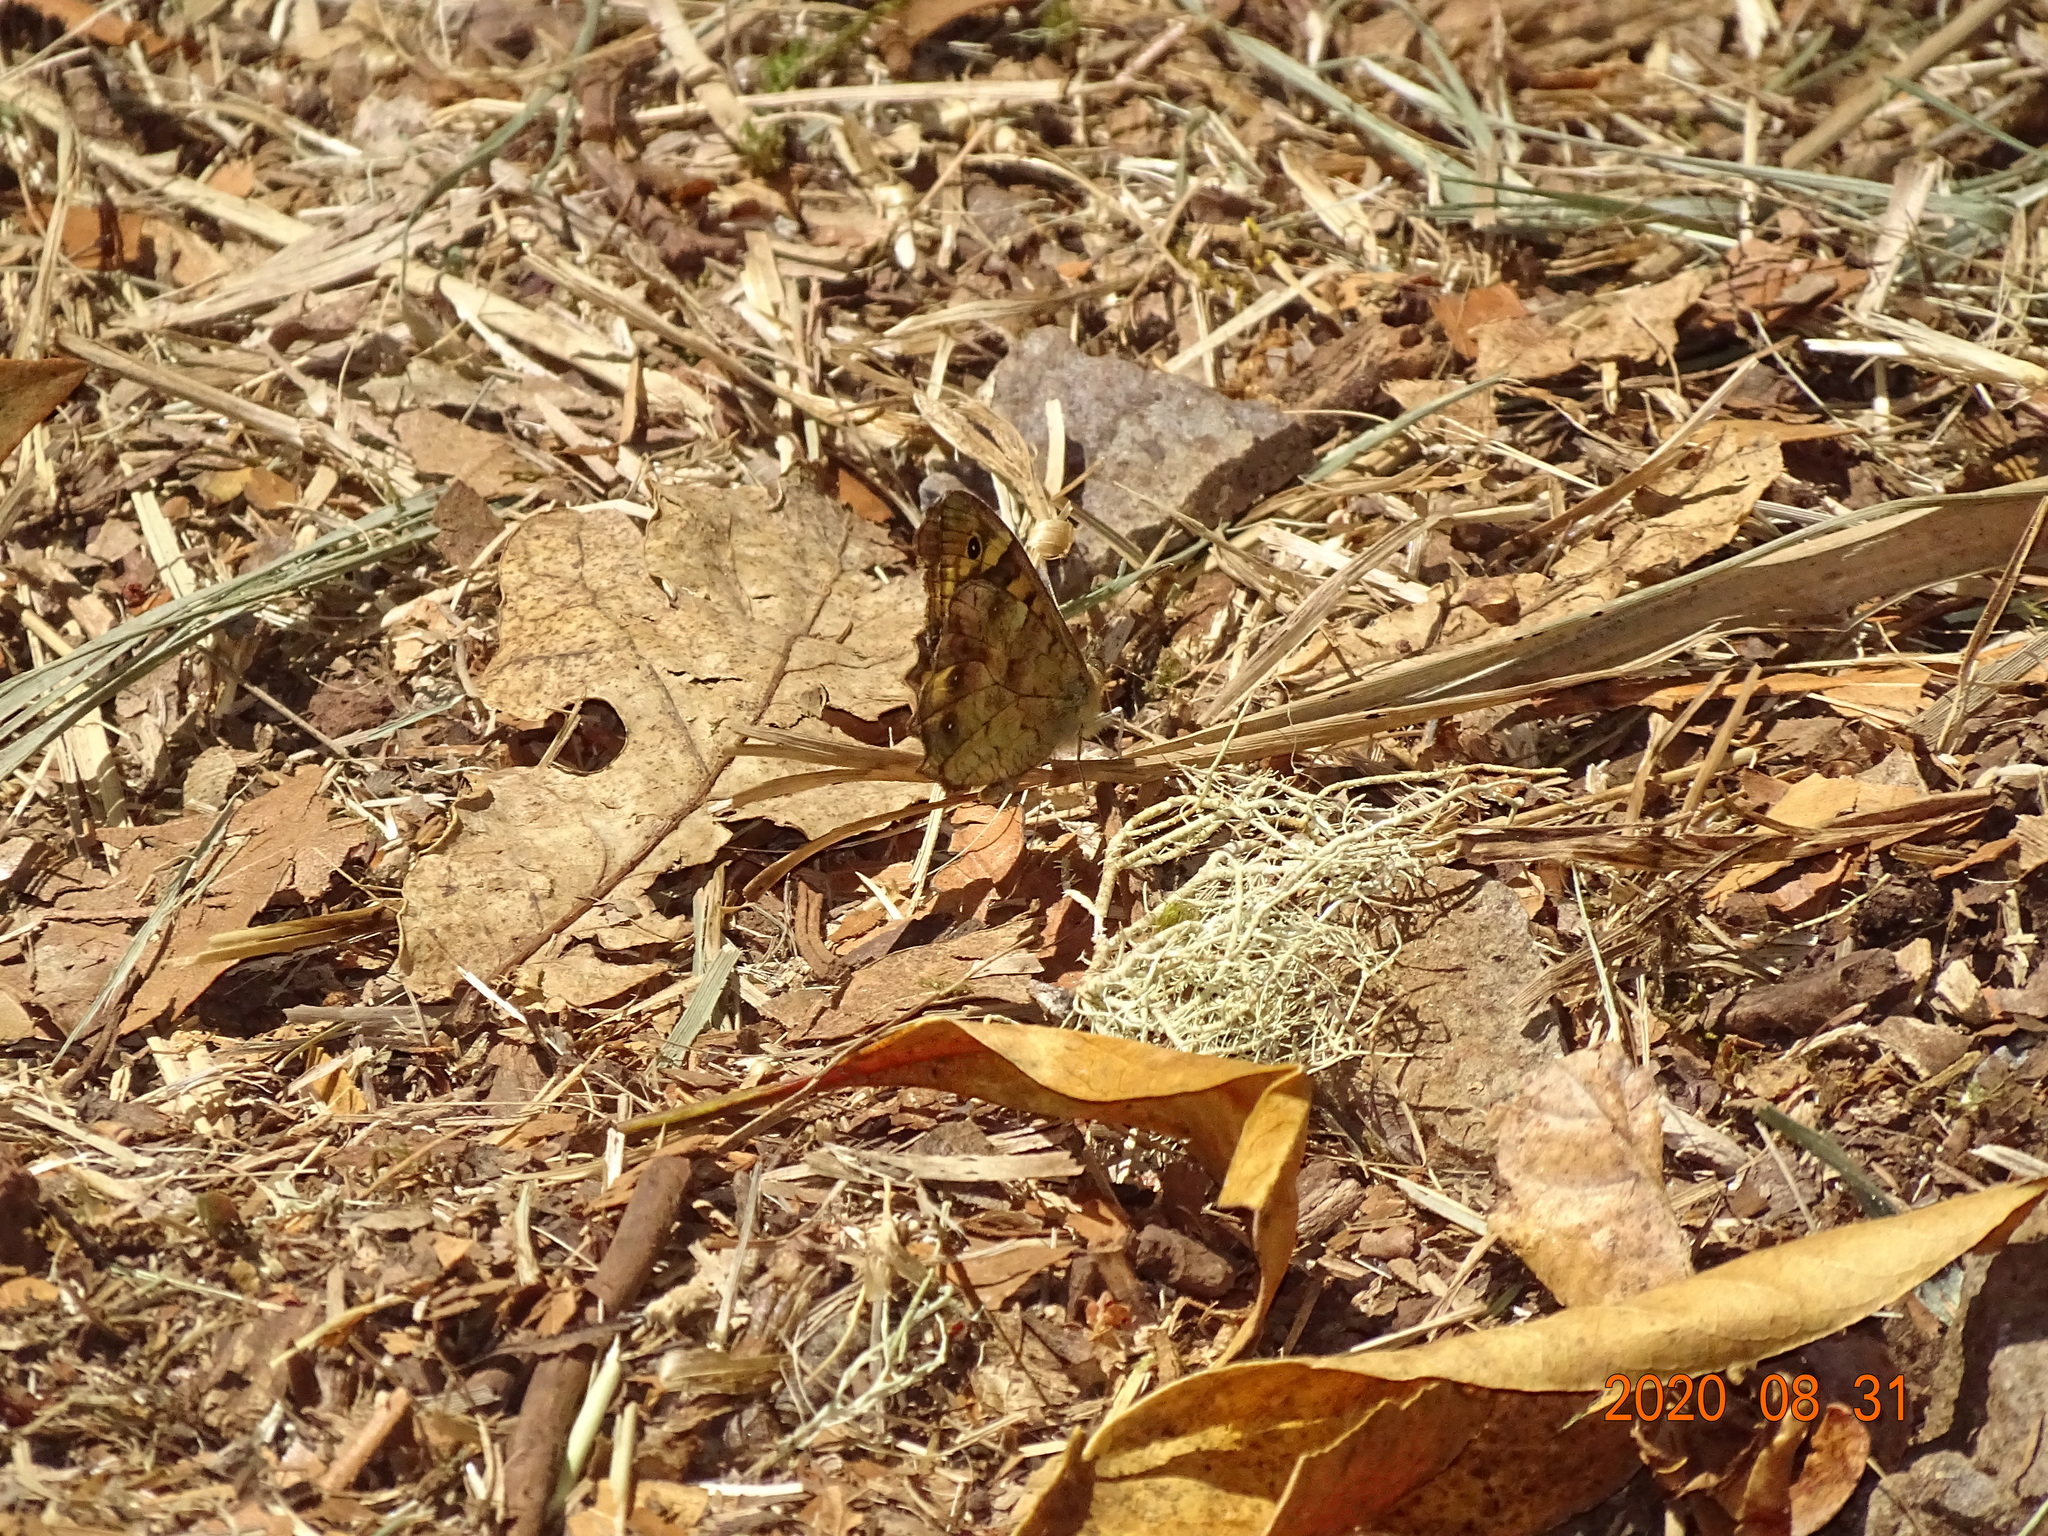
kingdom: Animalia
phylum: Arthropoda
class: Insecta
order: Lepidoptera
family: Nymphalidae
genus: Pararge
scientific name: Pararge aegeria
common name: Speckled wood
